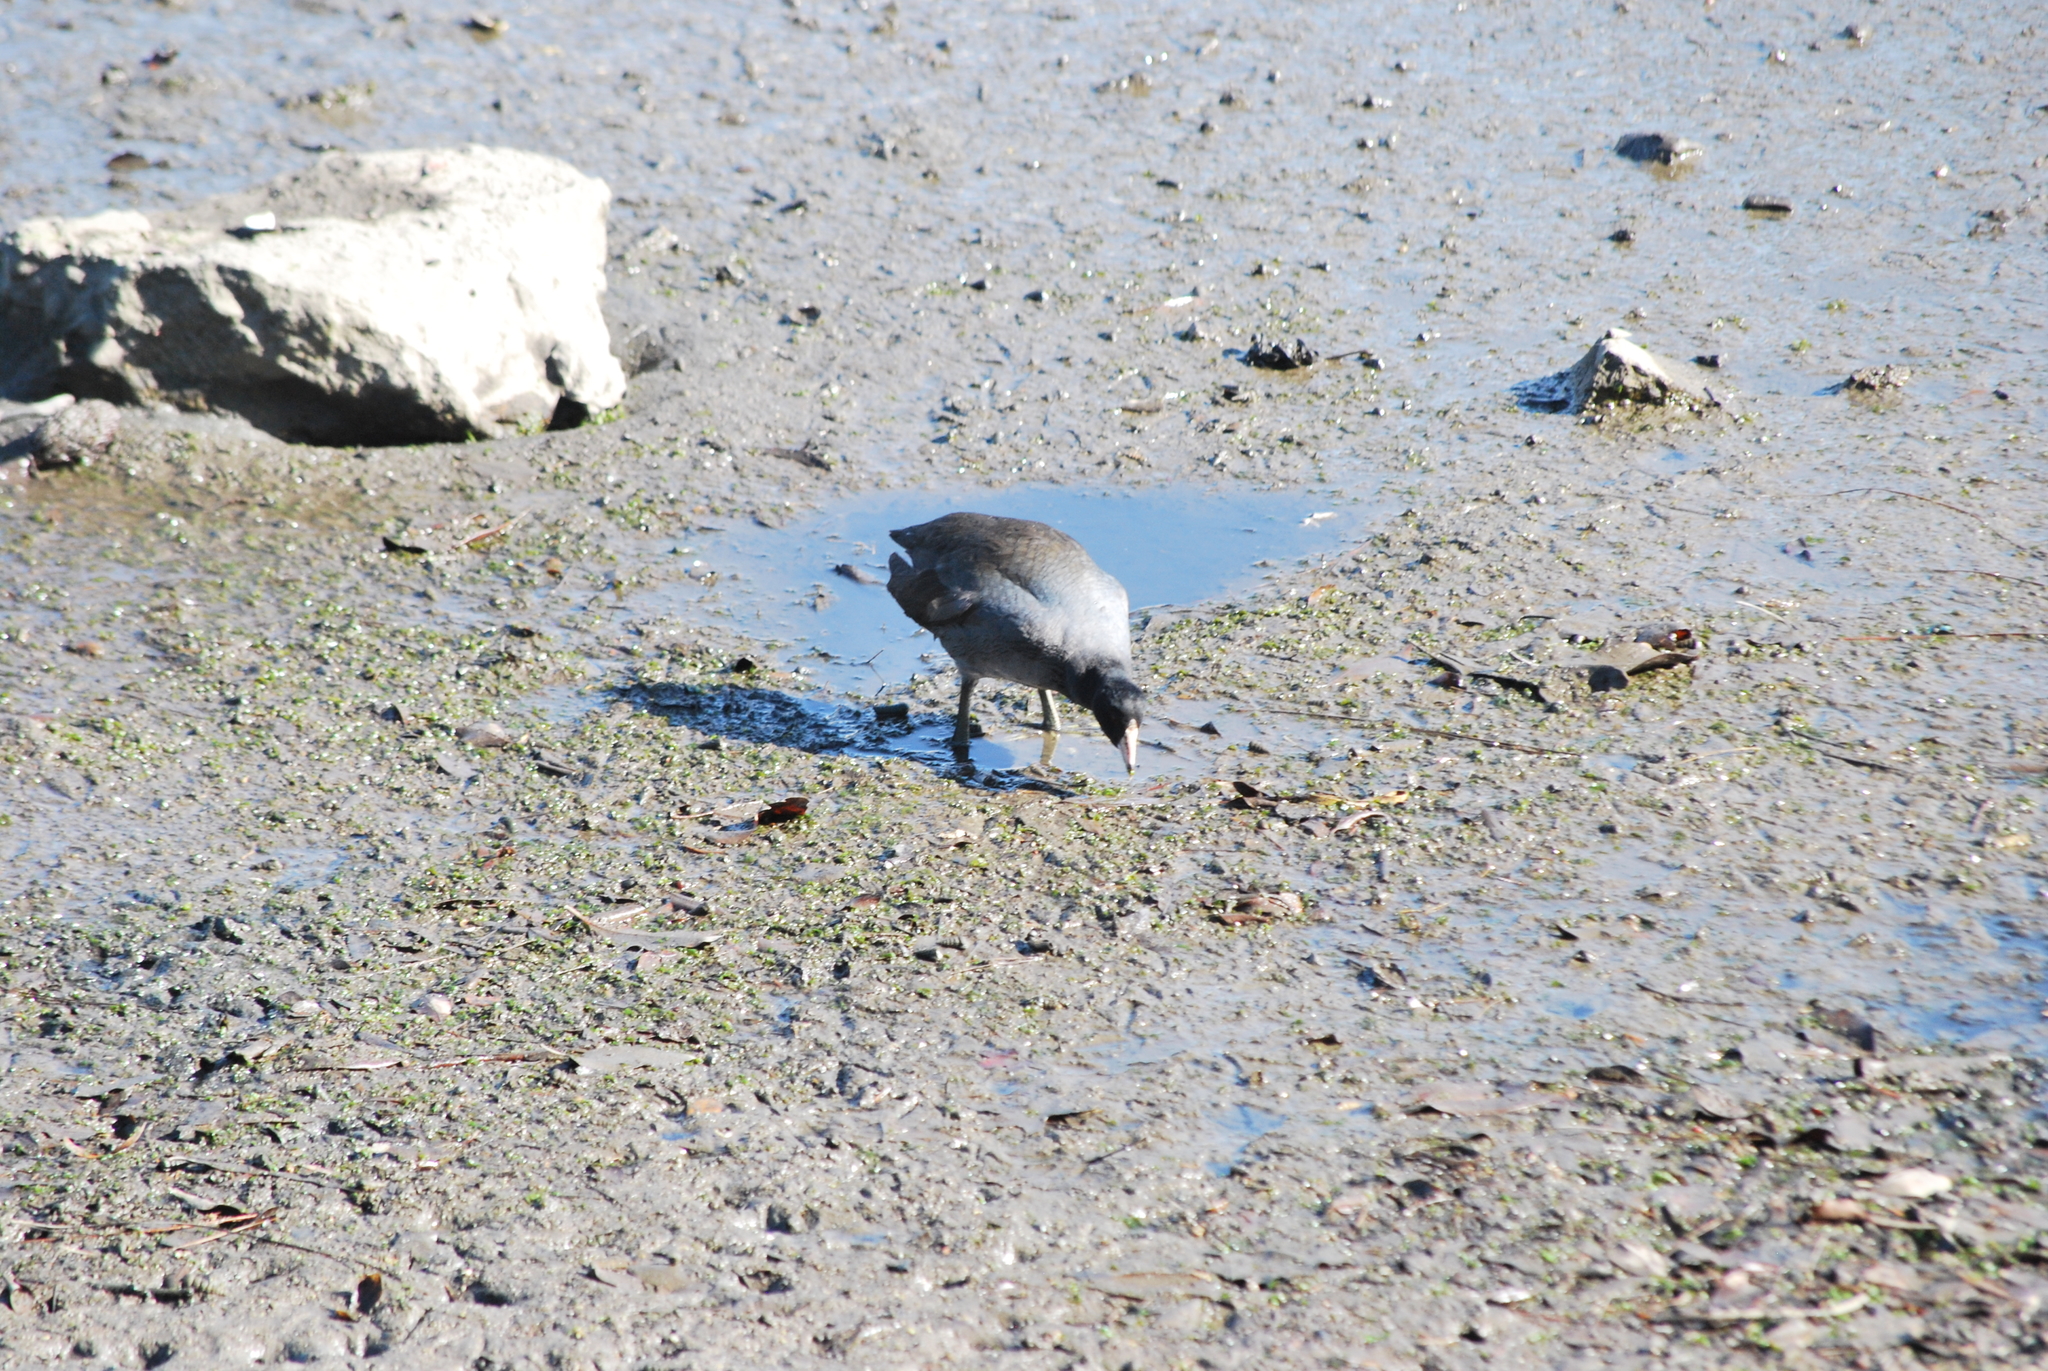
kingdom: Animalia
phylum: Chordata
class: Aves
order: Gruiformes
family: Rallidae
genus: Fulica
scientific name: Fulica americana
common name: American coot
